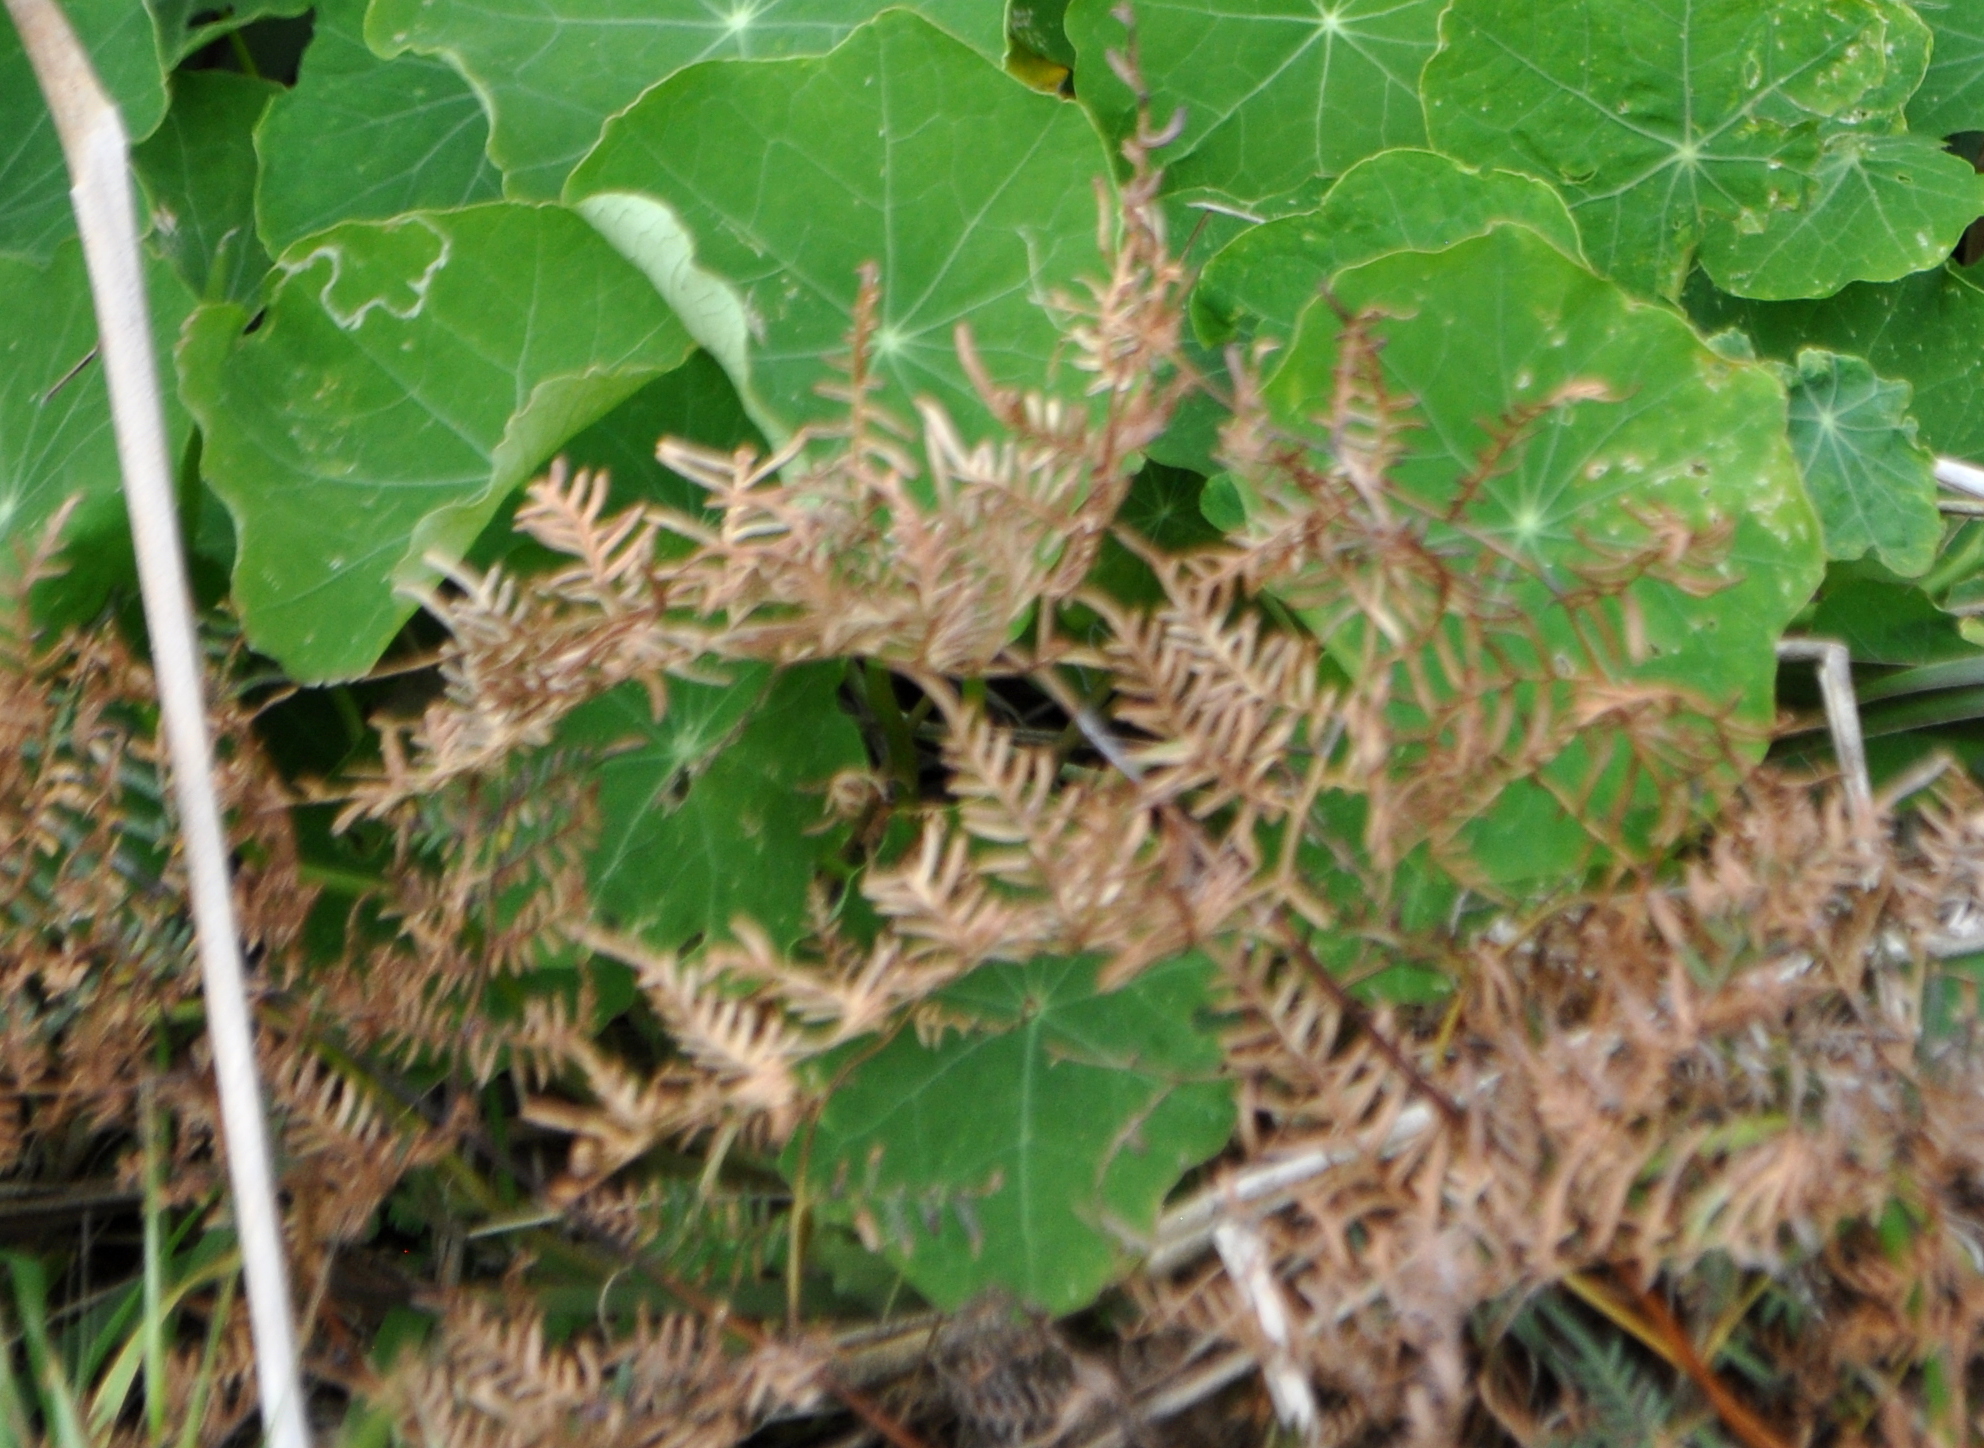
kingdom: Plantae
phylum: Tracheophyta
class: Polypodiopsida
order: Polypodiales
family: Dennstaedtiaceae
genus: Pteridium
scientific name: Pteridium esculentum
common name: Bracken fern
